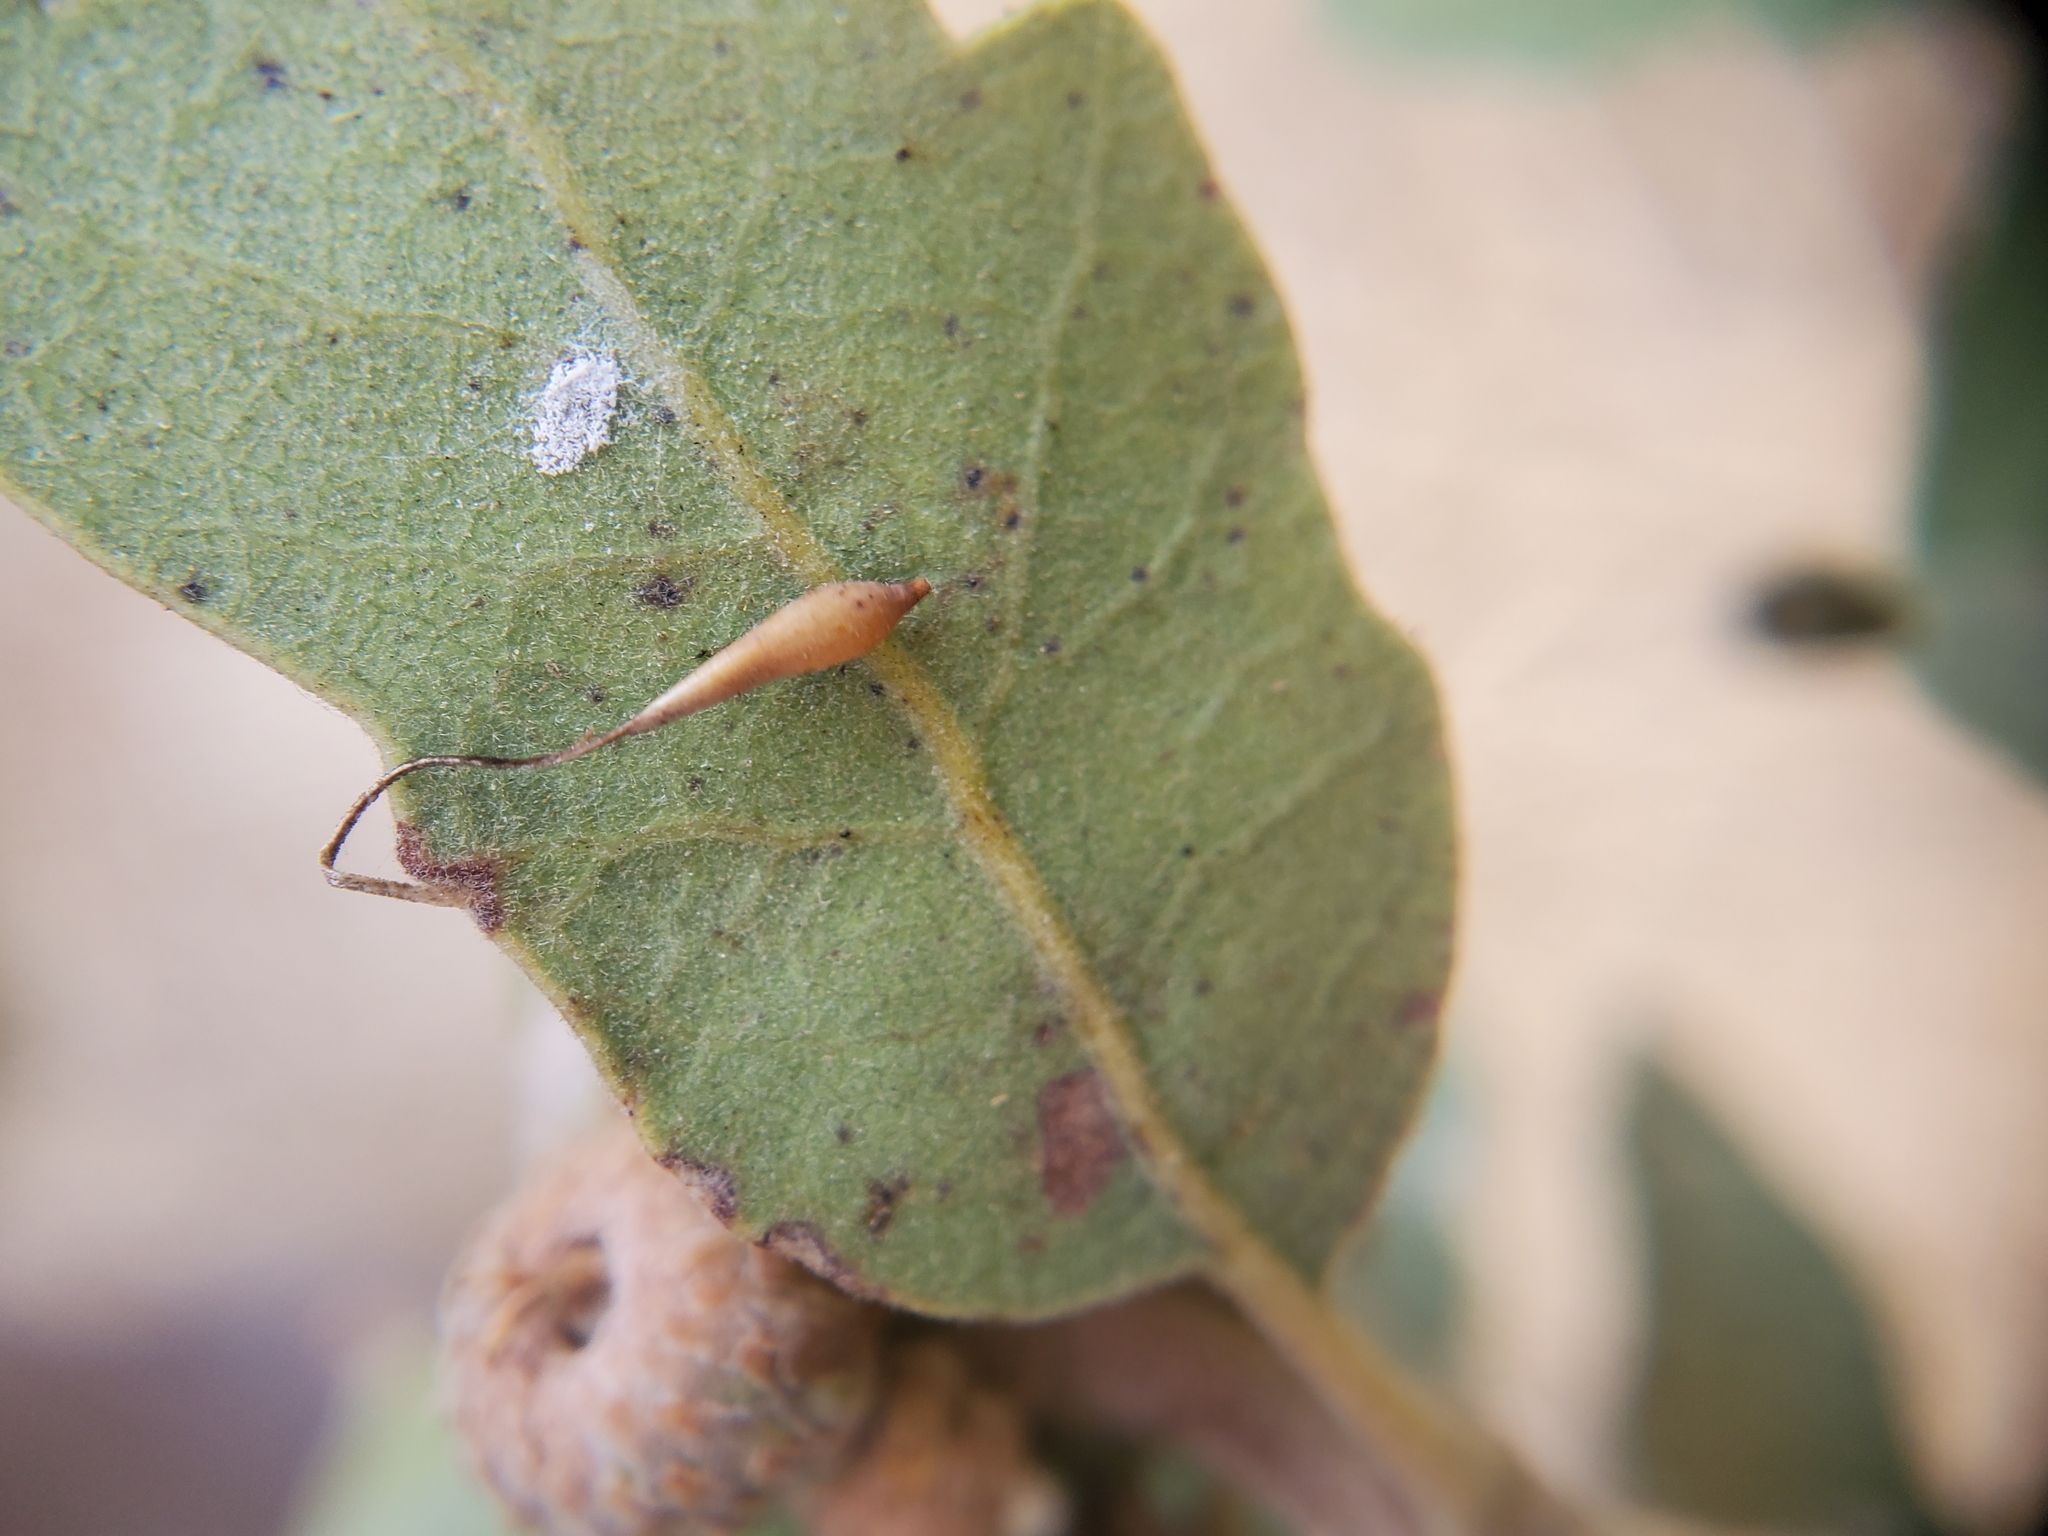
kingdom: Animalia
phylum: Arthropoda
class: Insecta
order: Hymenoptera
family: Cynipidae
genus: Andricus
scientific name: Andricus
